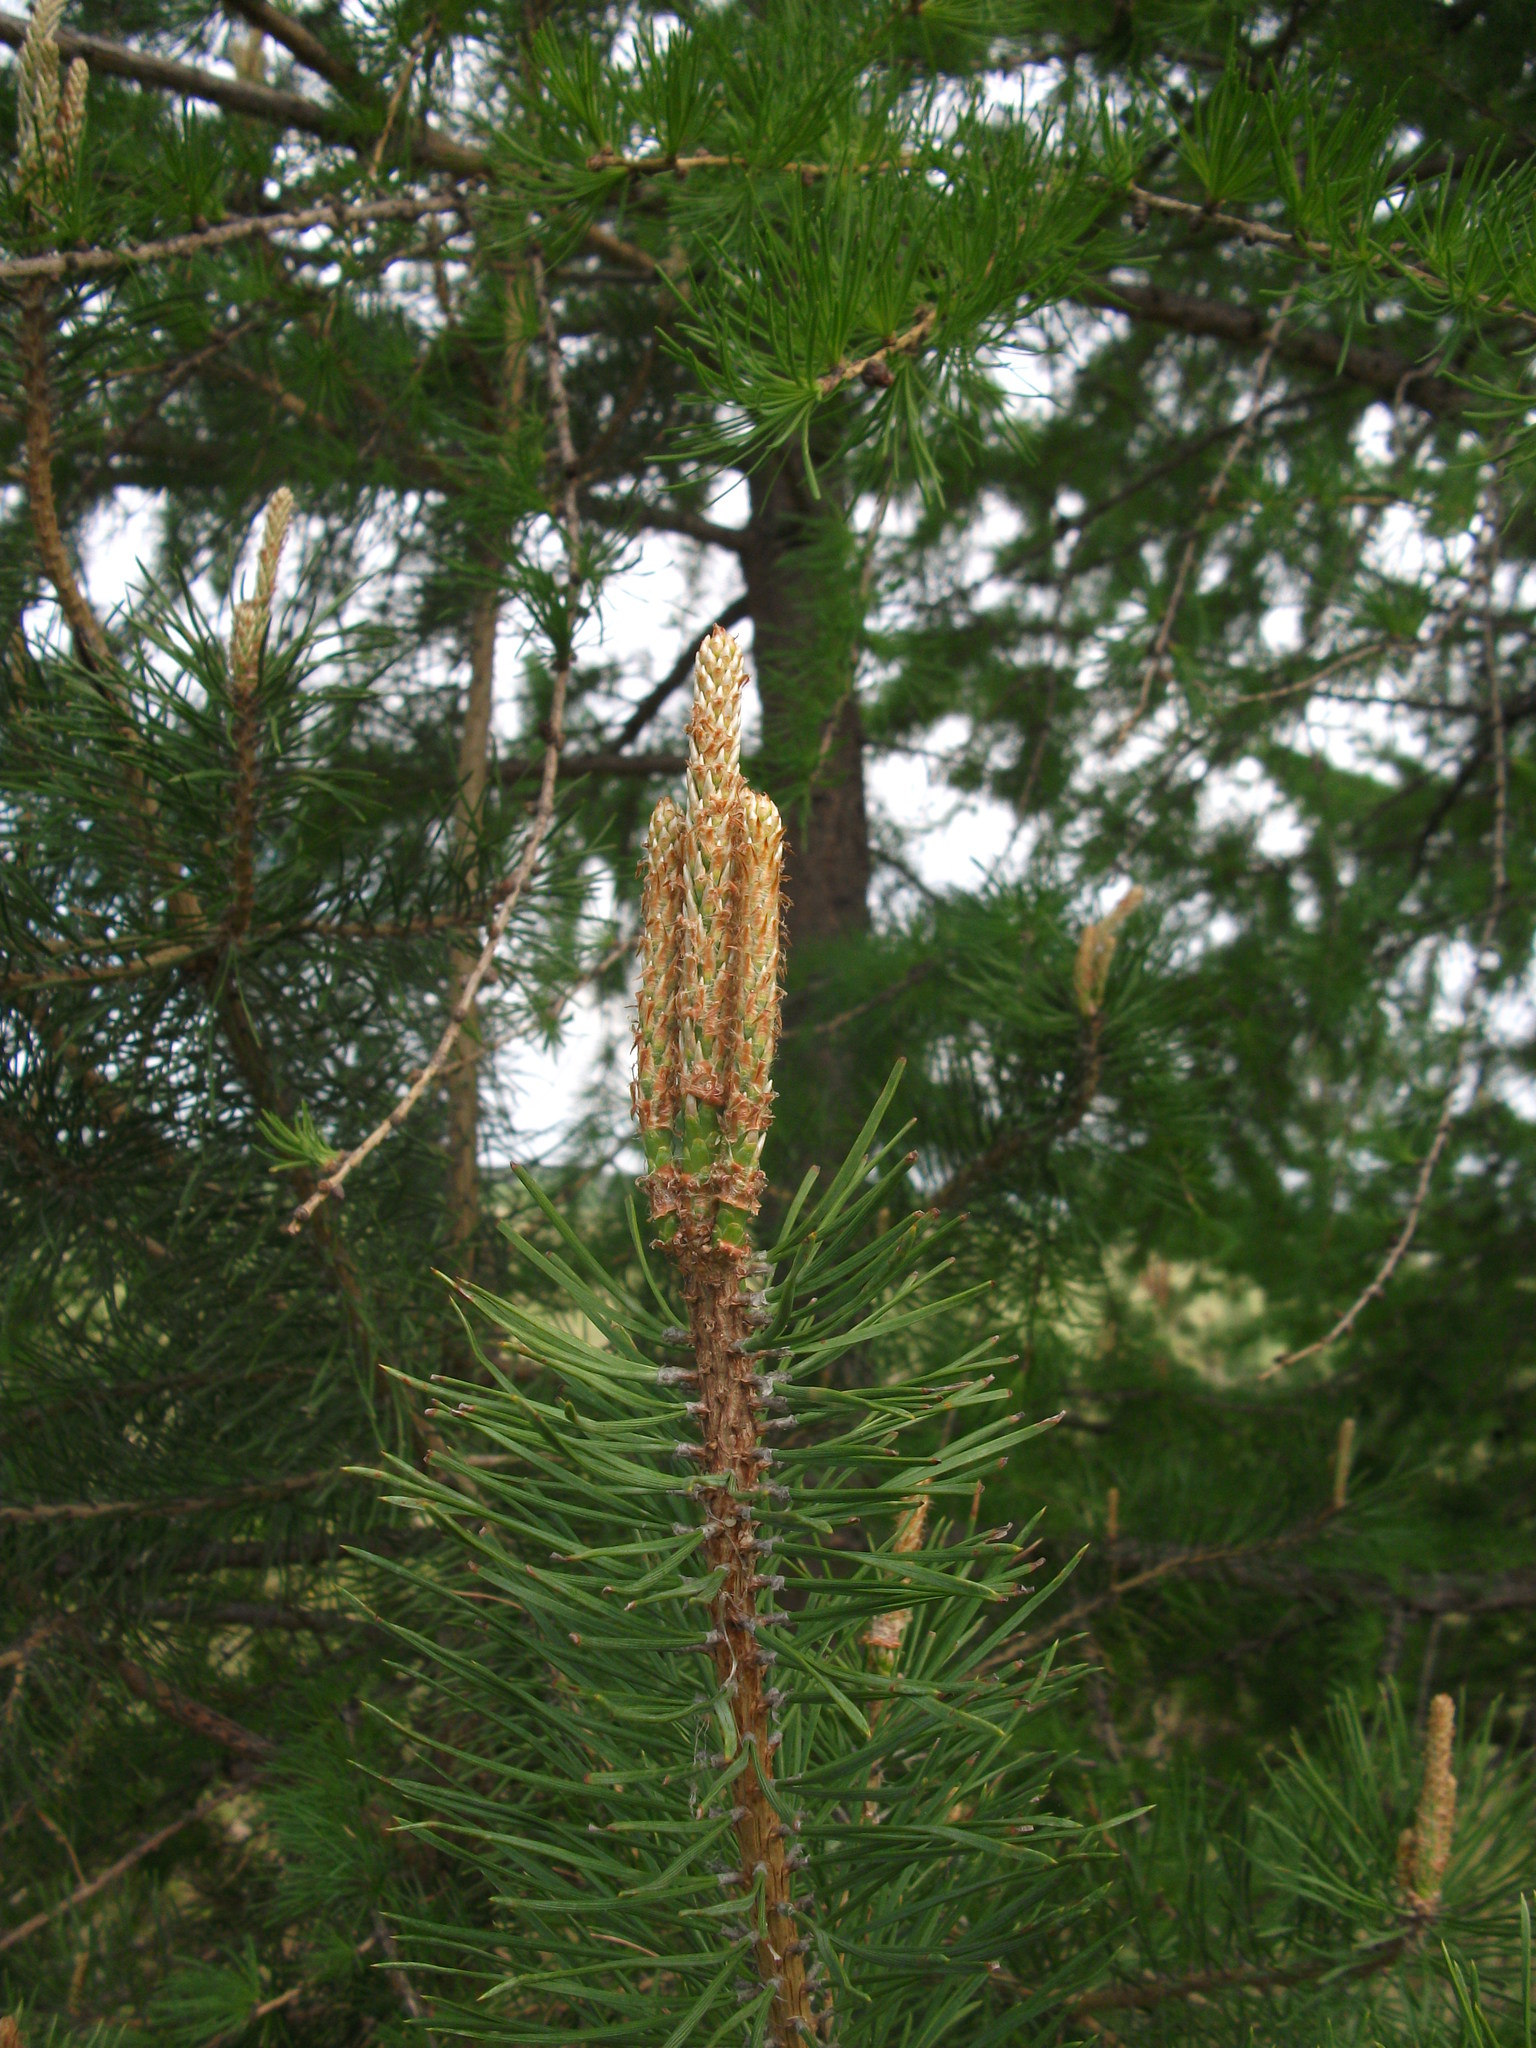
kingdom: Plantae
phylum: Tracheophyta
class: Pinopsida
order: Pinales
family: Pinaceae
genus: Pinus
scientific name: Pinus sylvestris
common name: Scots pine
